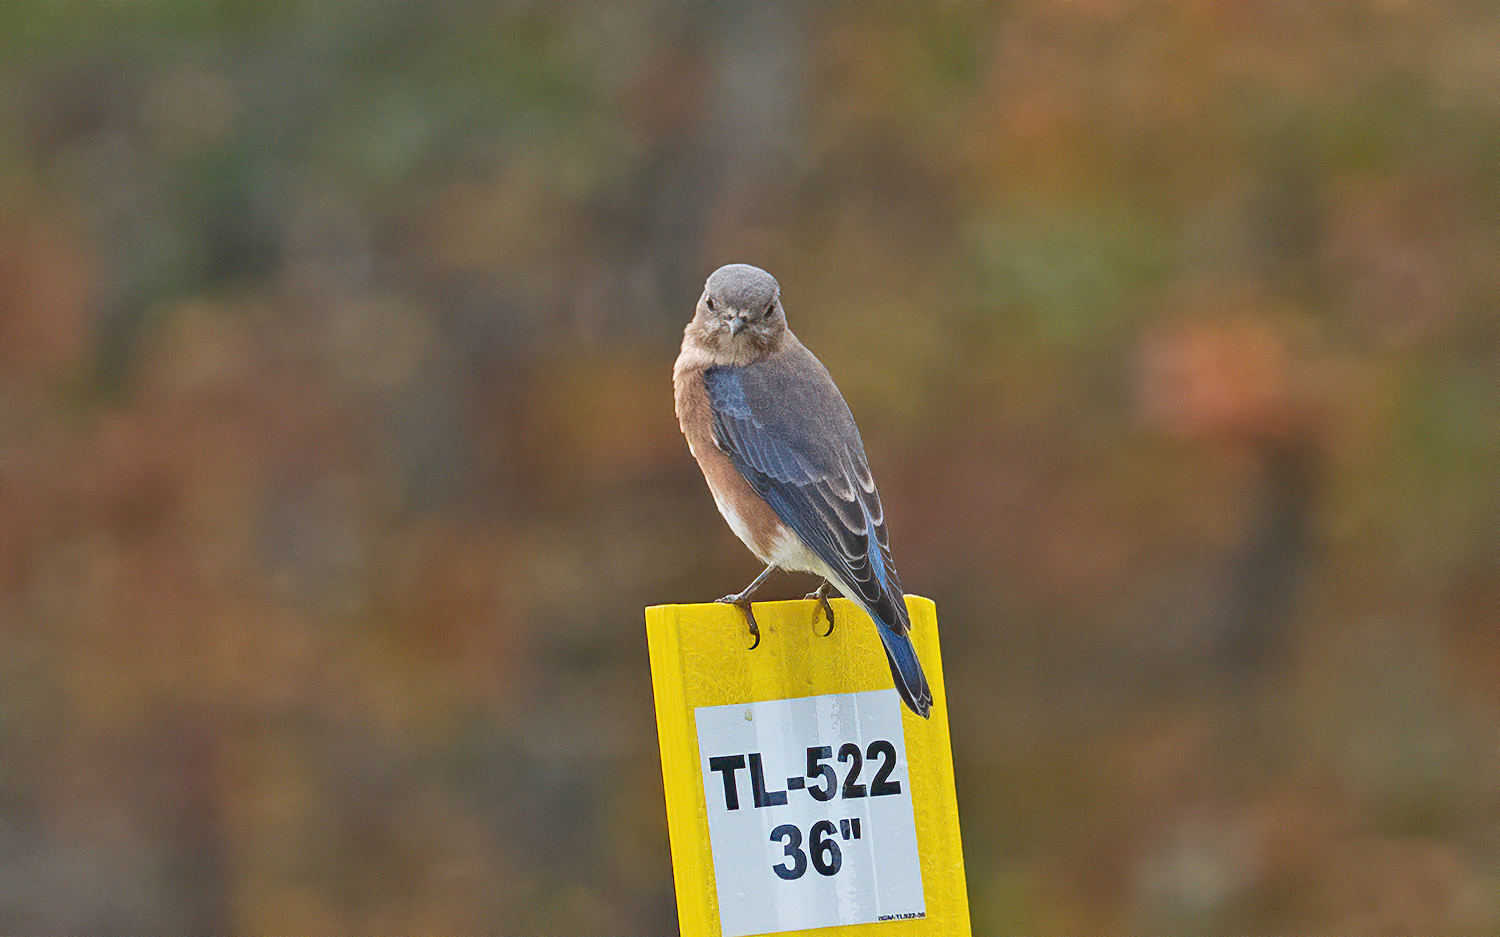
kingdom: Animalia
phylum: Chordata
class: Aves
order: Passeriformes
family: Turdidae
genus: Sialia
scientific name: Sialia sialis
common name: Eastern bluebird
